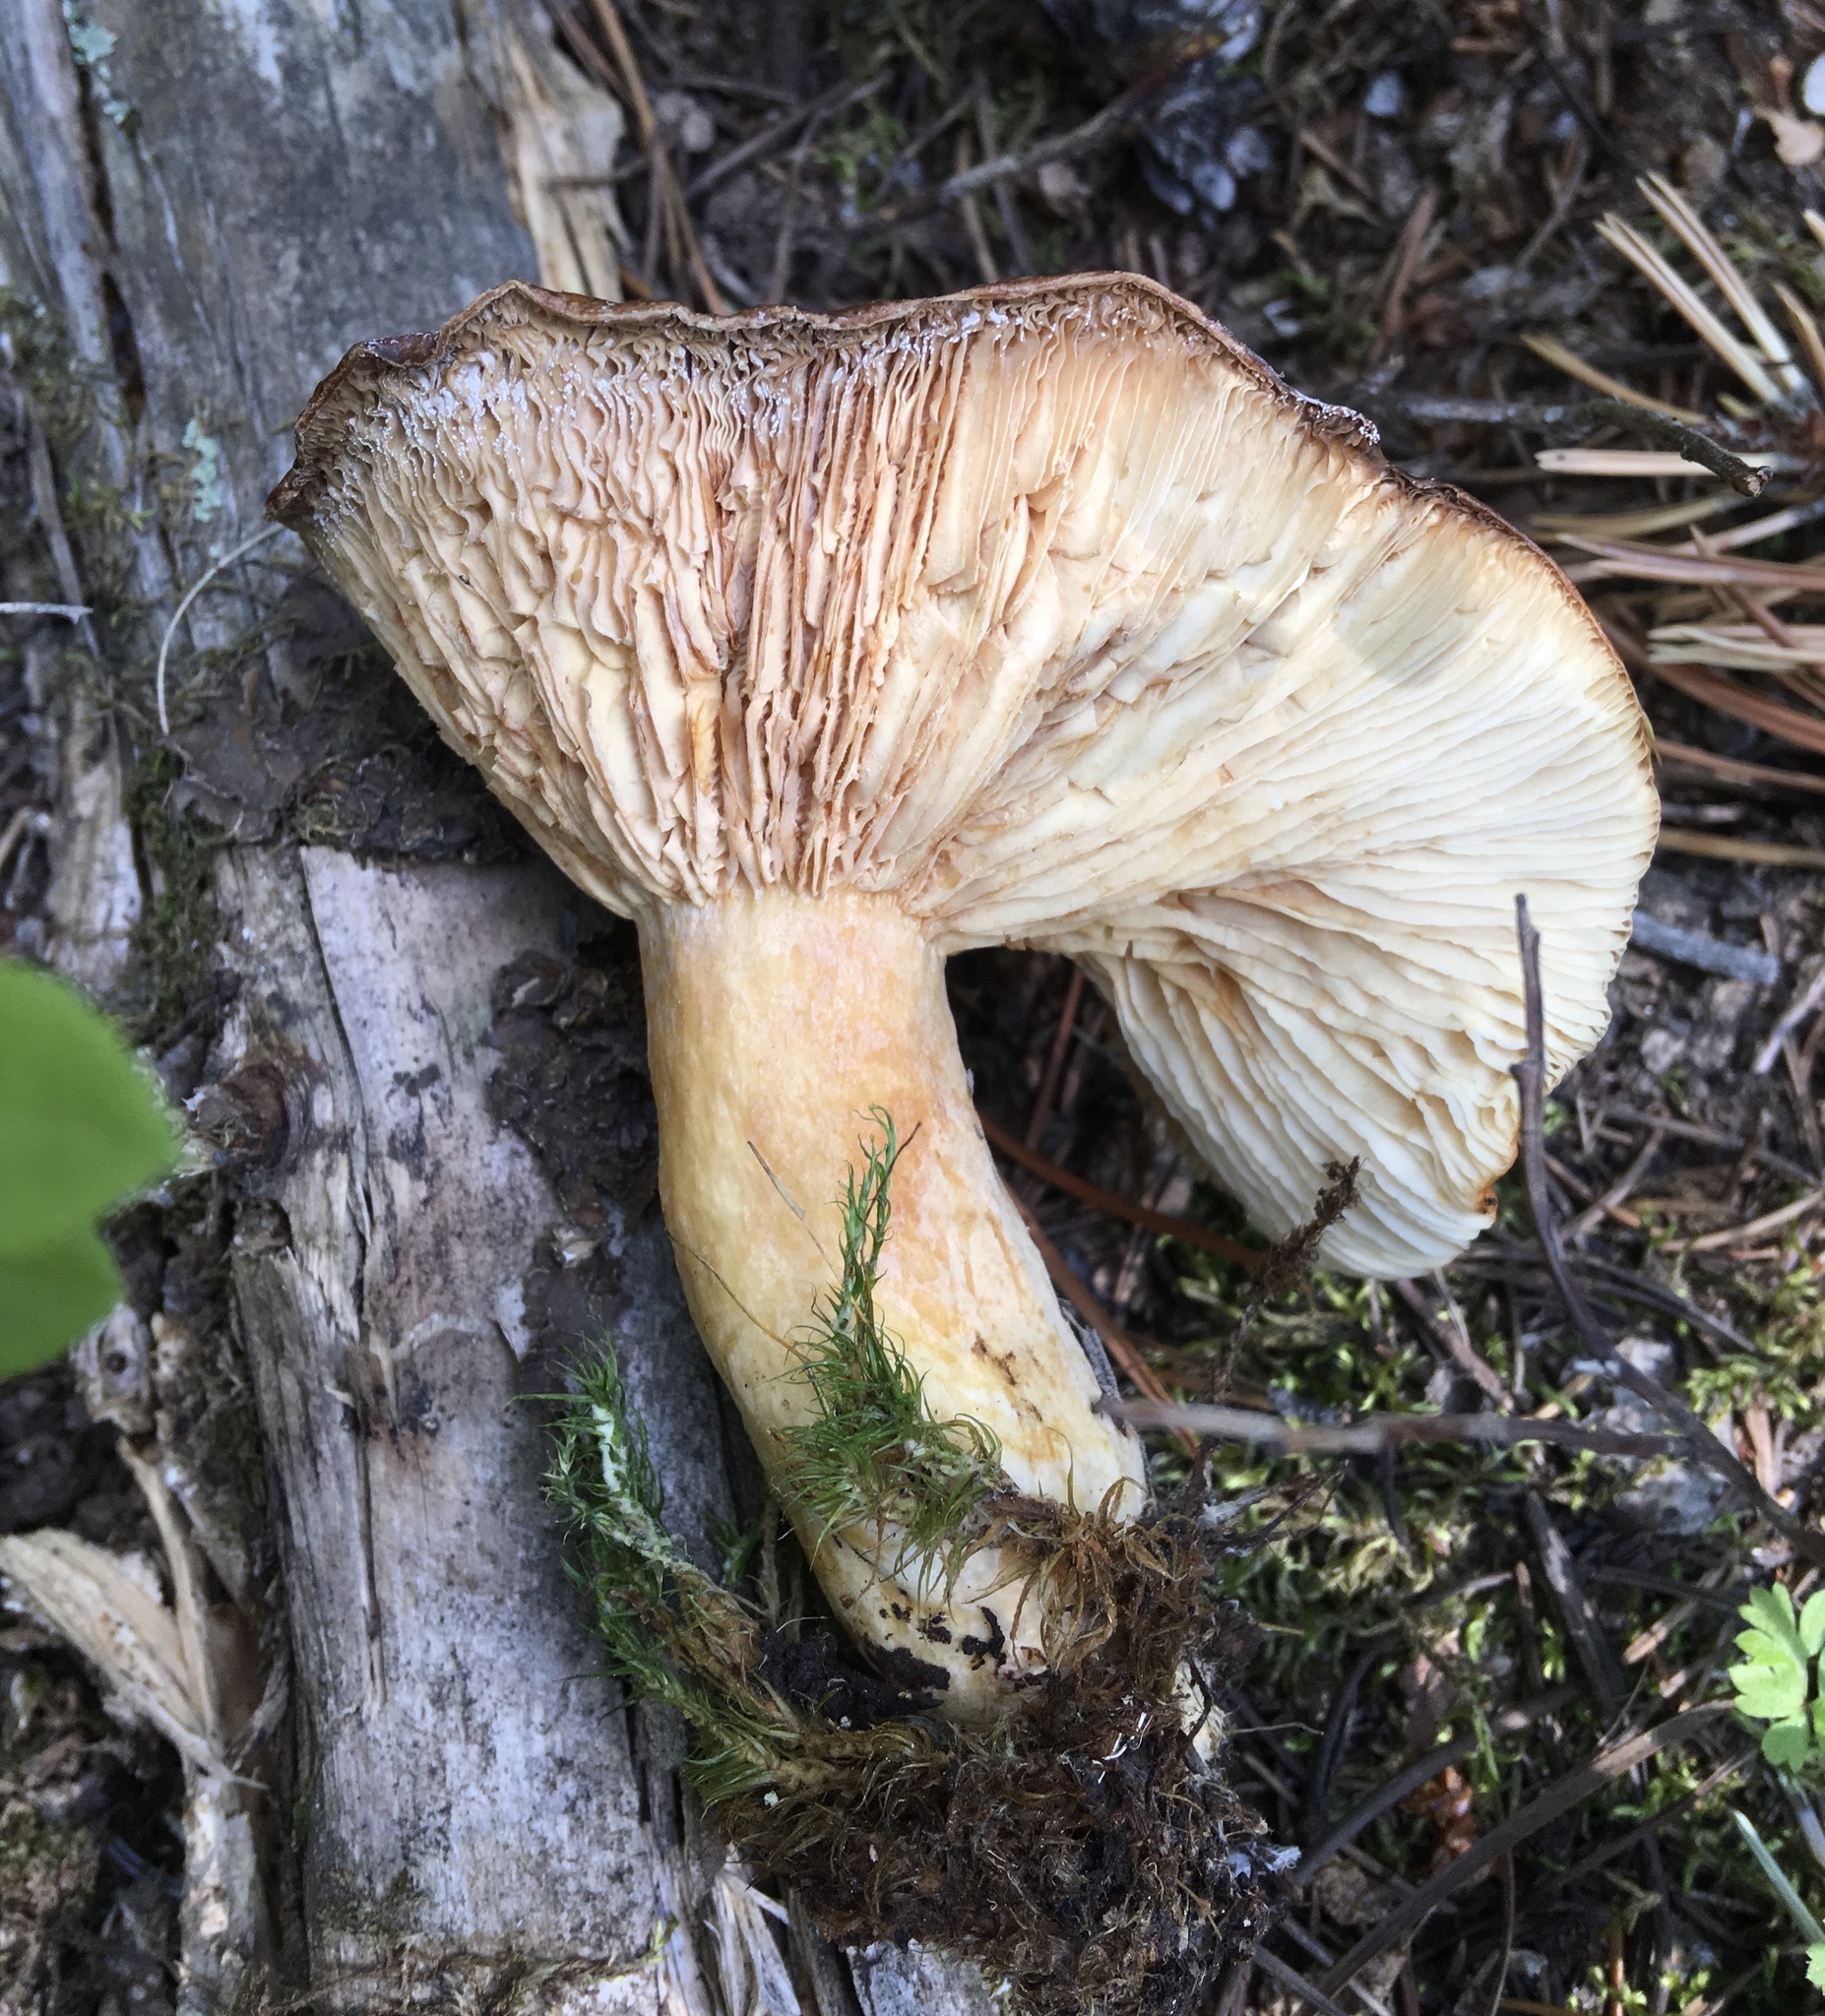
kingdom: Fungi
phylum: Basidiomycota
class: Agaricomycetes
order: Russulales
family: Russulaceae
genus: Lactarius
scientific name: Lactarius olympianus
